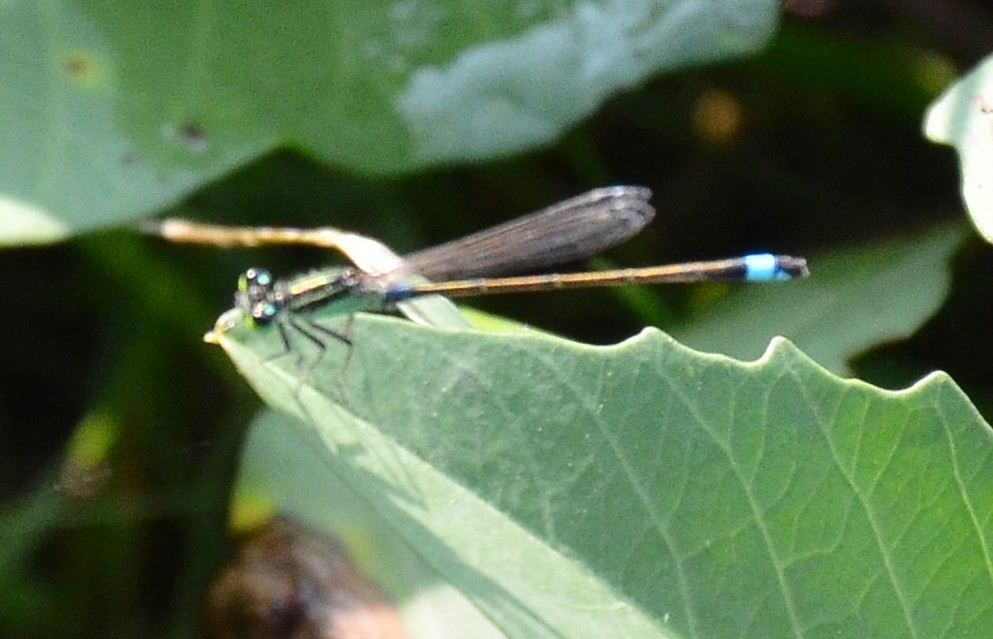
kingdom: Animalia
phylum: Arthropoda
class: Insecta
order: Odonata
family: Coenagrionidae
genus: Ischnura
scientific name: Ischnura senegalensis
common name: Tropical bluetail
